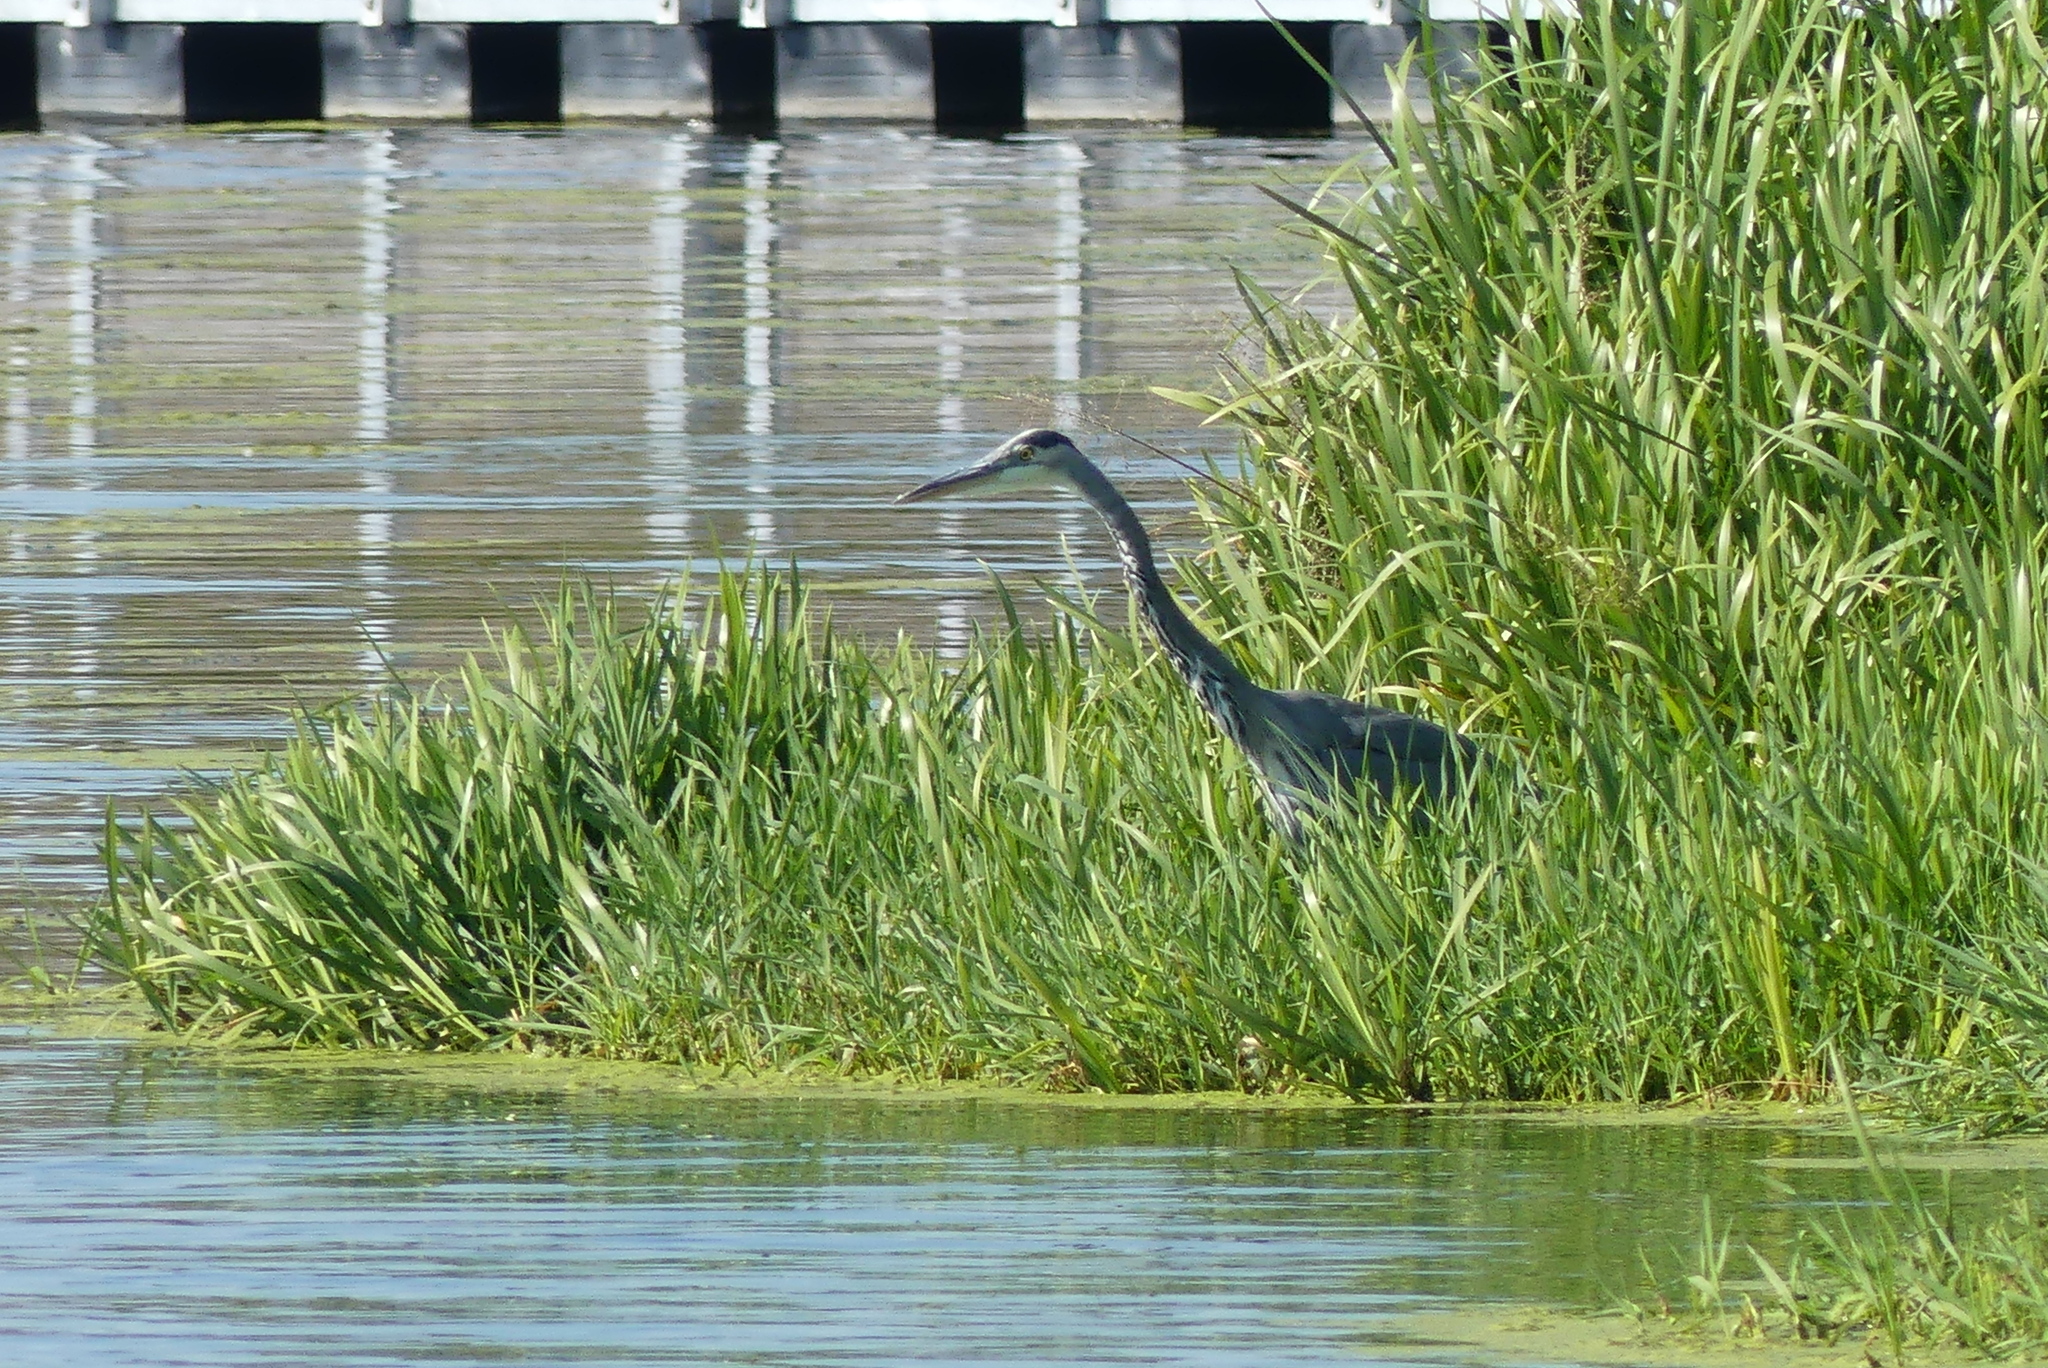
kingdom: Animalia
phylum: Chordata
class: Aves
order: Pelecaniformes
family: Ardeidae
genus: Ardea
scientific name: Ardea herodias
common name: Great blue heron
